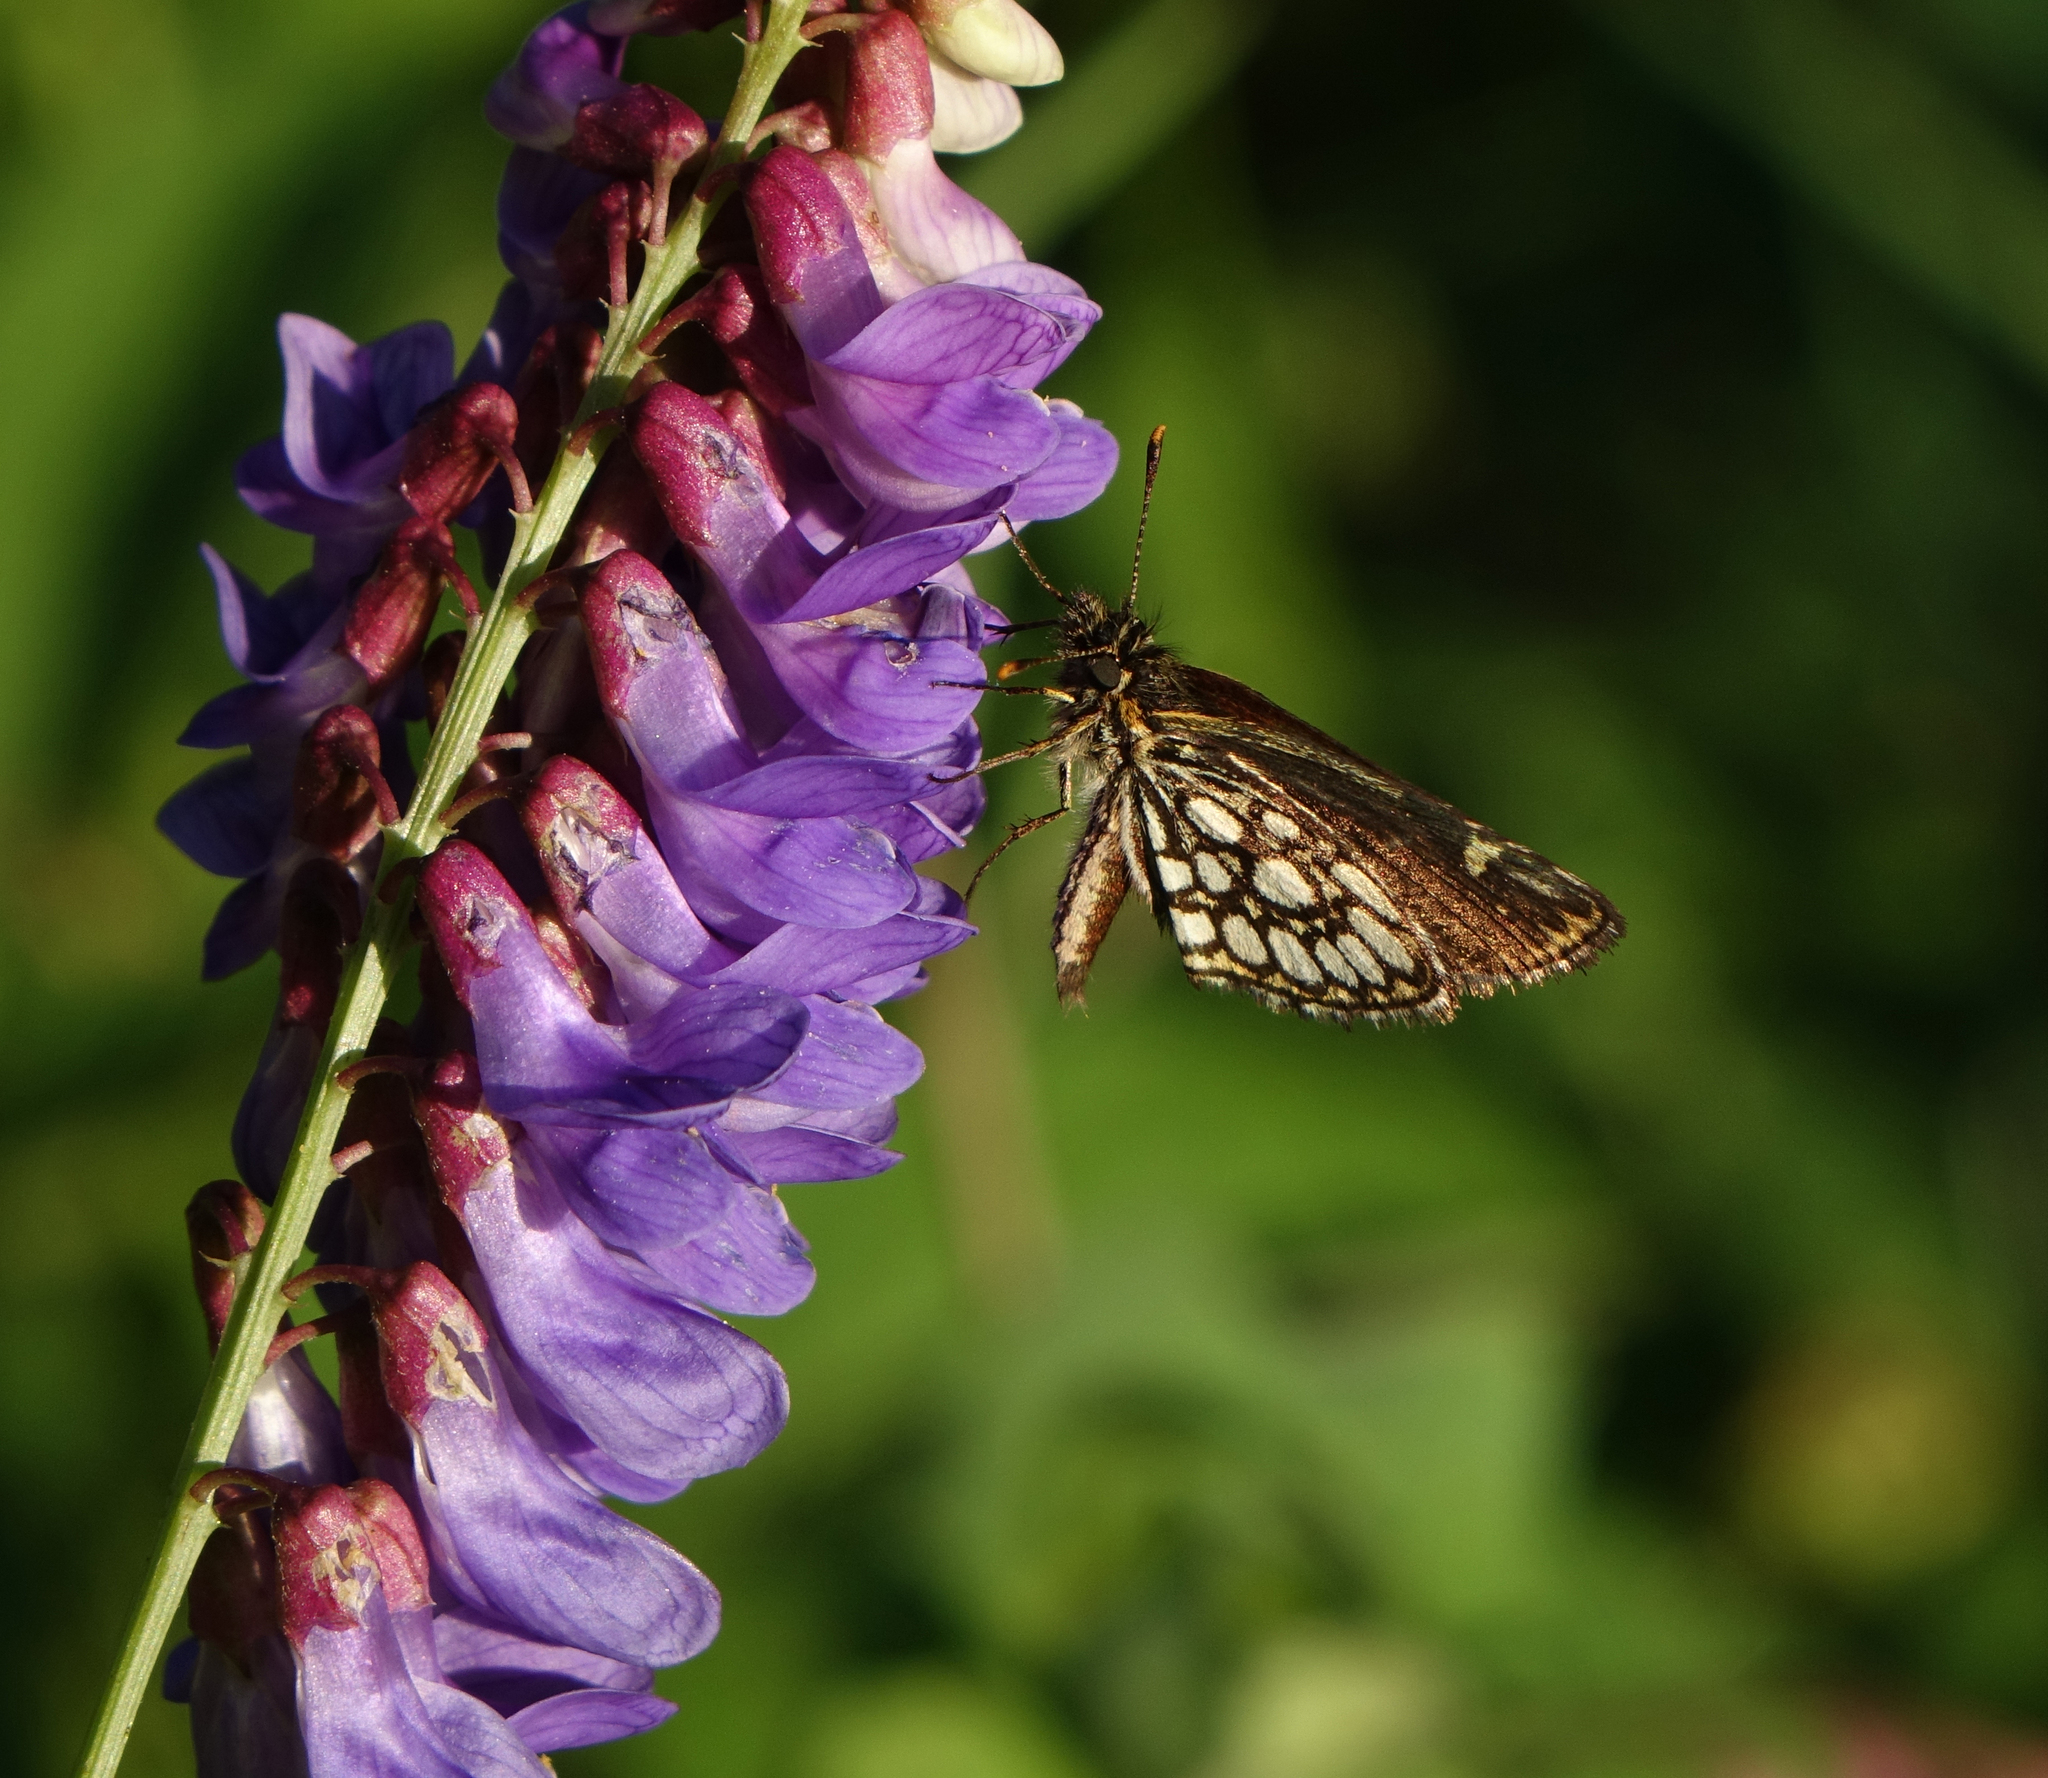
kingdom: Plantae
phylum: Tracheophyta
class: Magnoliopsida
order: Fabales
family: Fabaceae
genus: Vicia
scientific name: Vicia unijuga
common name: Two-leaf vetch
